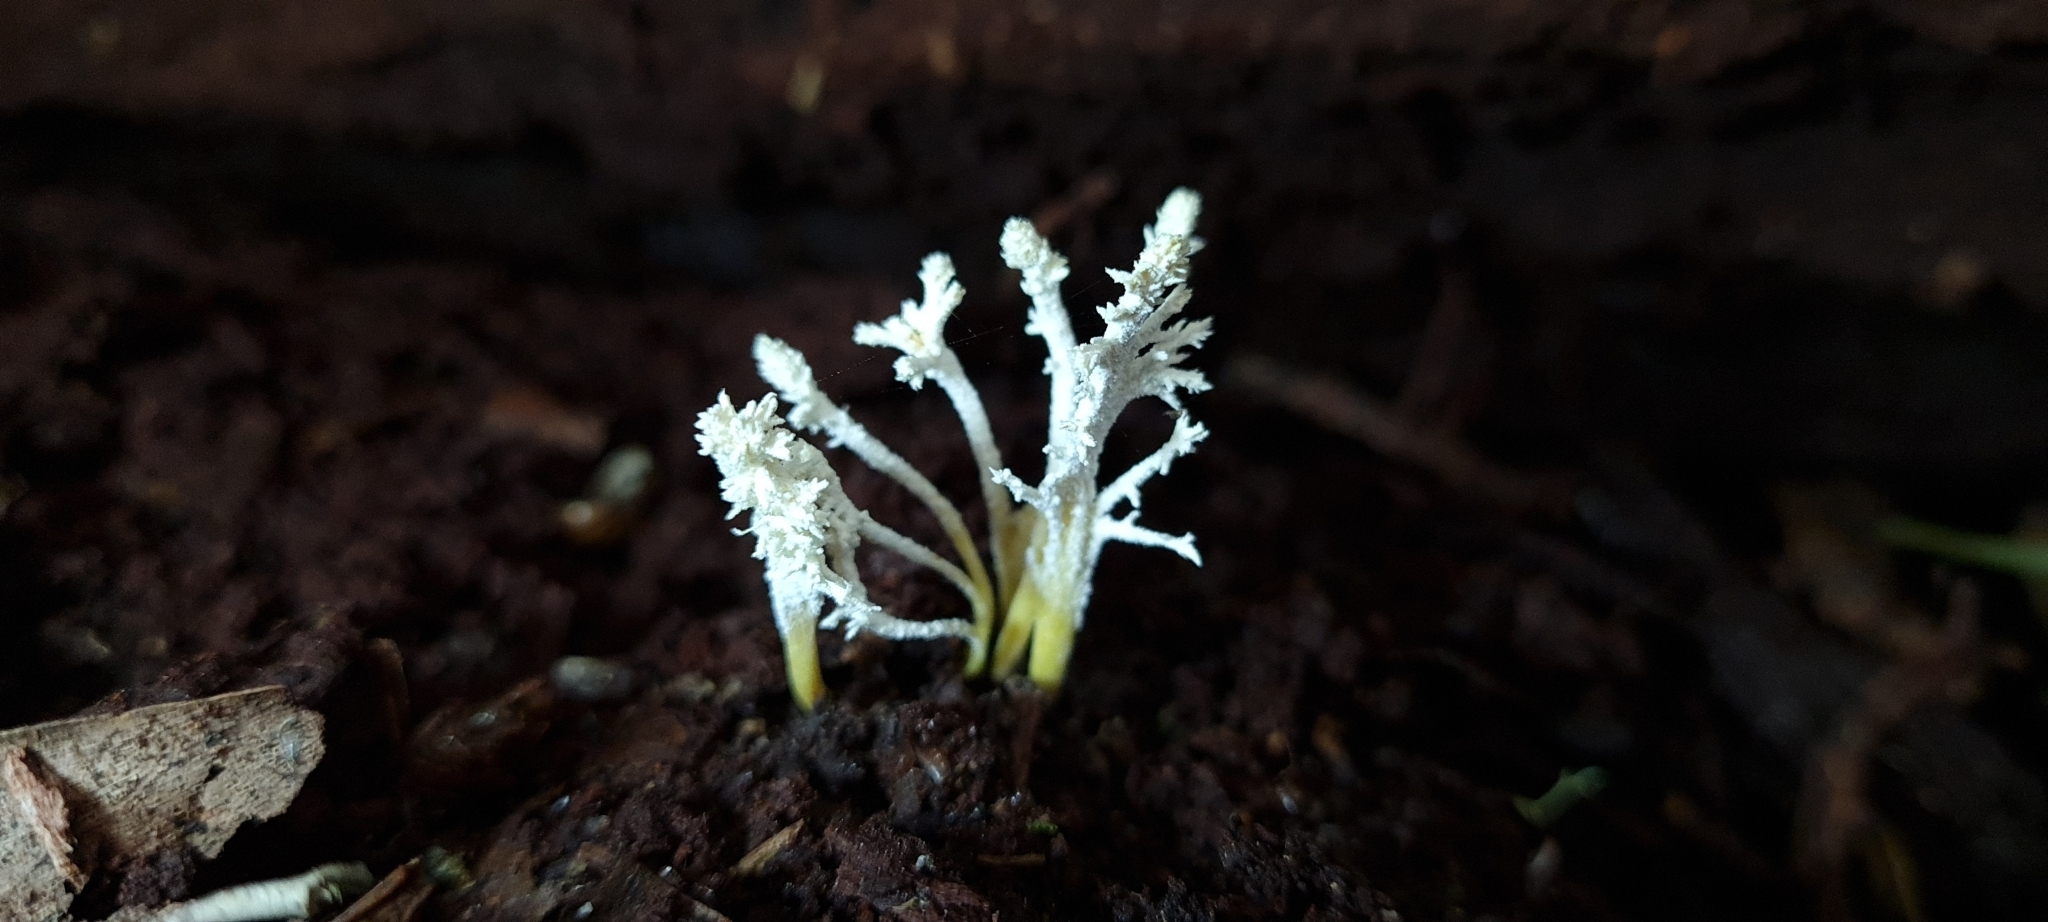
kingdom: Fungi
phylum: Ascomycota
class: Sordariomycetes
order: Hypocreales
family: Cordycipitaceae
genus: Cordyceps
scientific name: Cordyceps tenuipes
